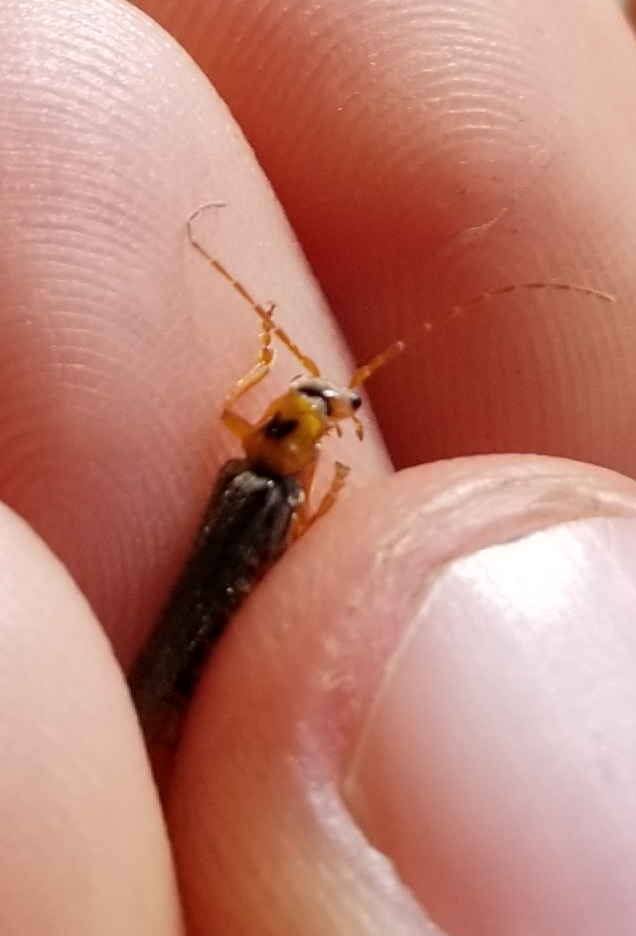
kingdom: Animalia
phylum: Arthropoda
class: Insecta
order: Coleoptera
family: Cantharidae
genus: Cultellunguis
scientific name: Cultellunguis americanus
